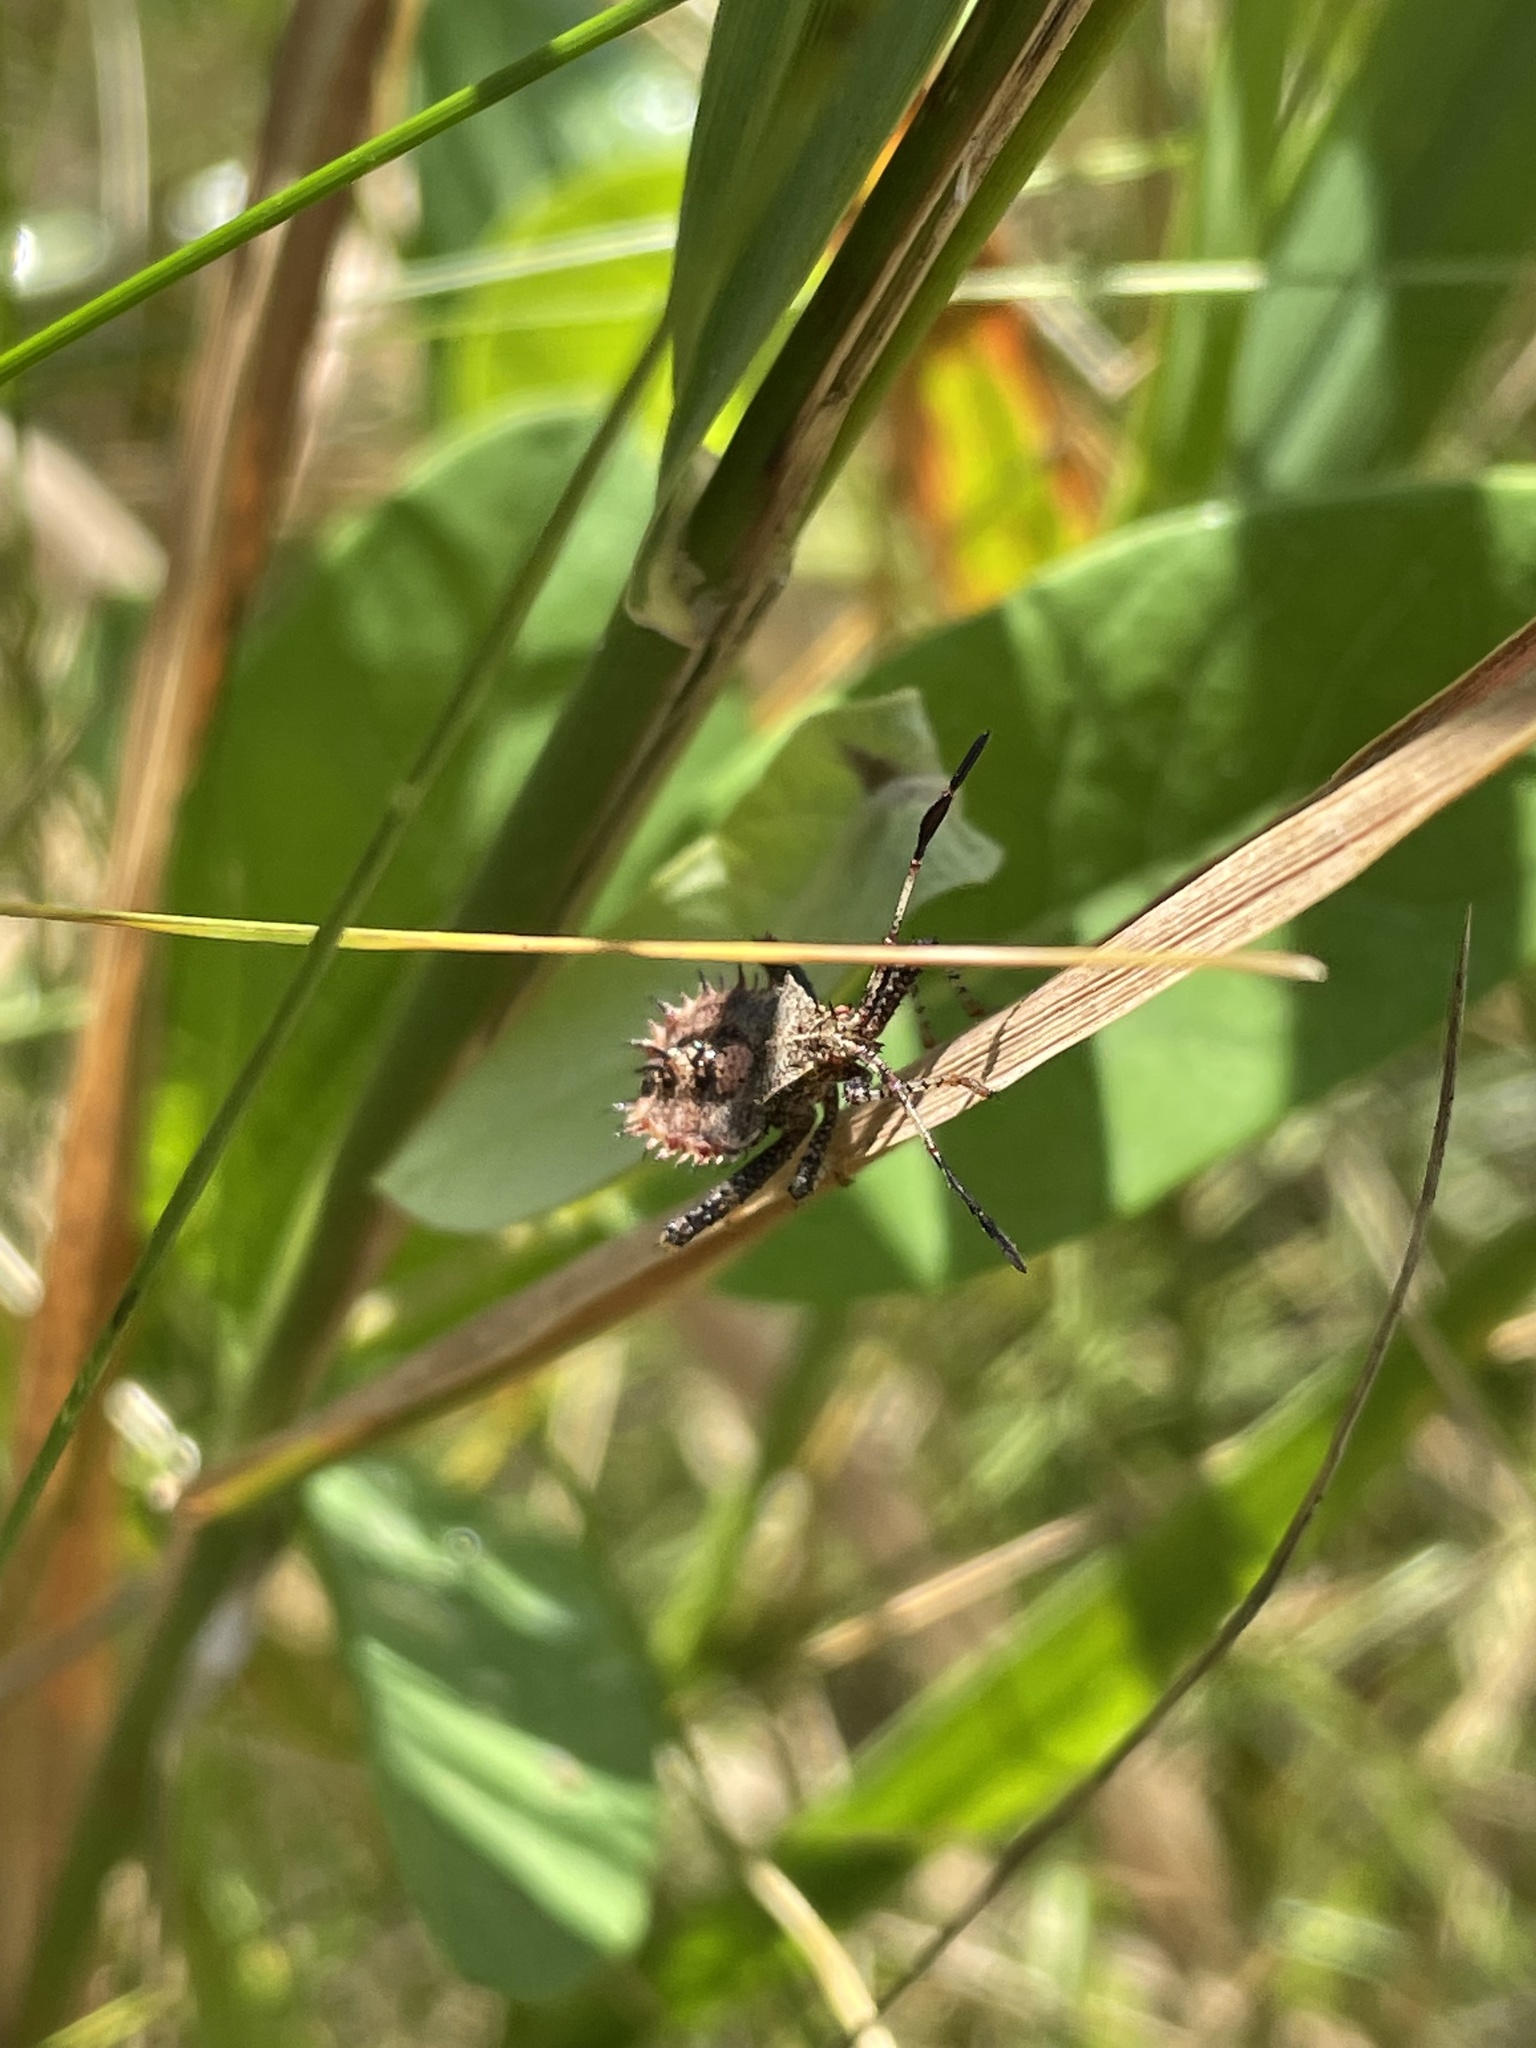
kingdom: Animalia
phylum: Arthropoda
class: Insecta
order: Hemiptera
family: Coreidae
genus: Euthochtha
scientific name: Euthochtha galeator
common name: Helmeted squash bug
